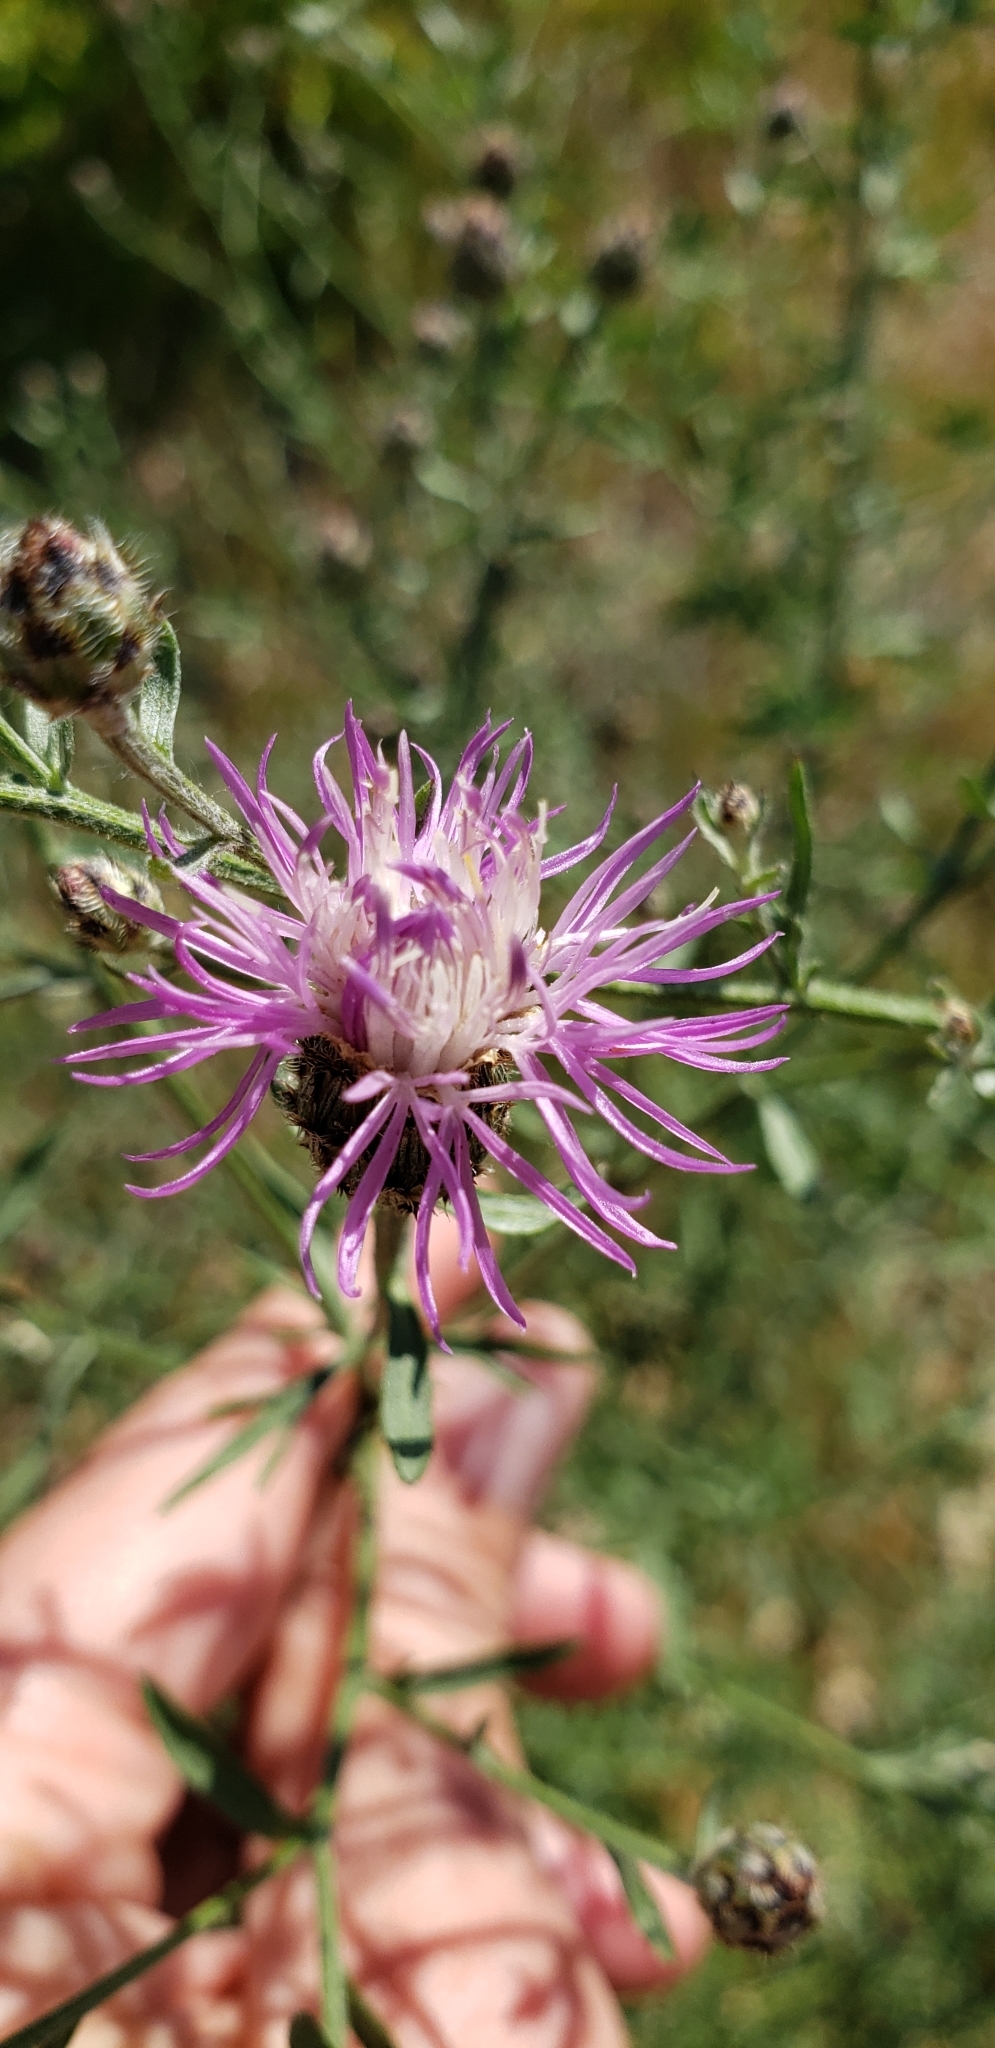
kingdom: Plantae
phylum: Tracheophyta
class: Magnoliopsida
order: Asterales
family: Asteraceae
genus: Centaurea
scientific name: Centaurea stoebe
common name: Spotted knapweed
